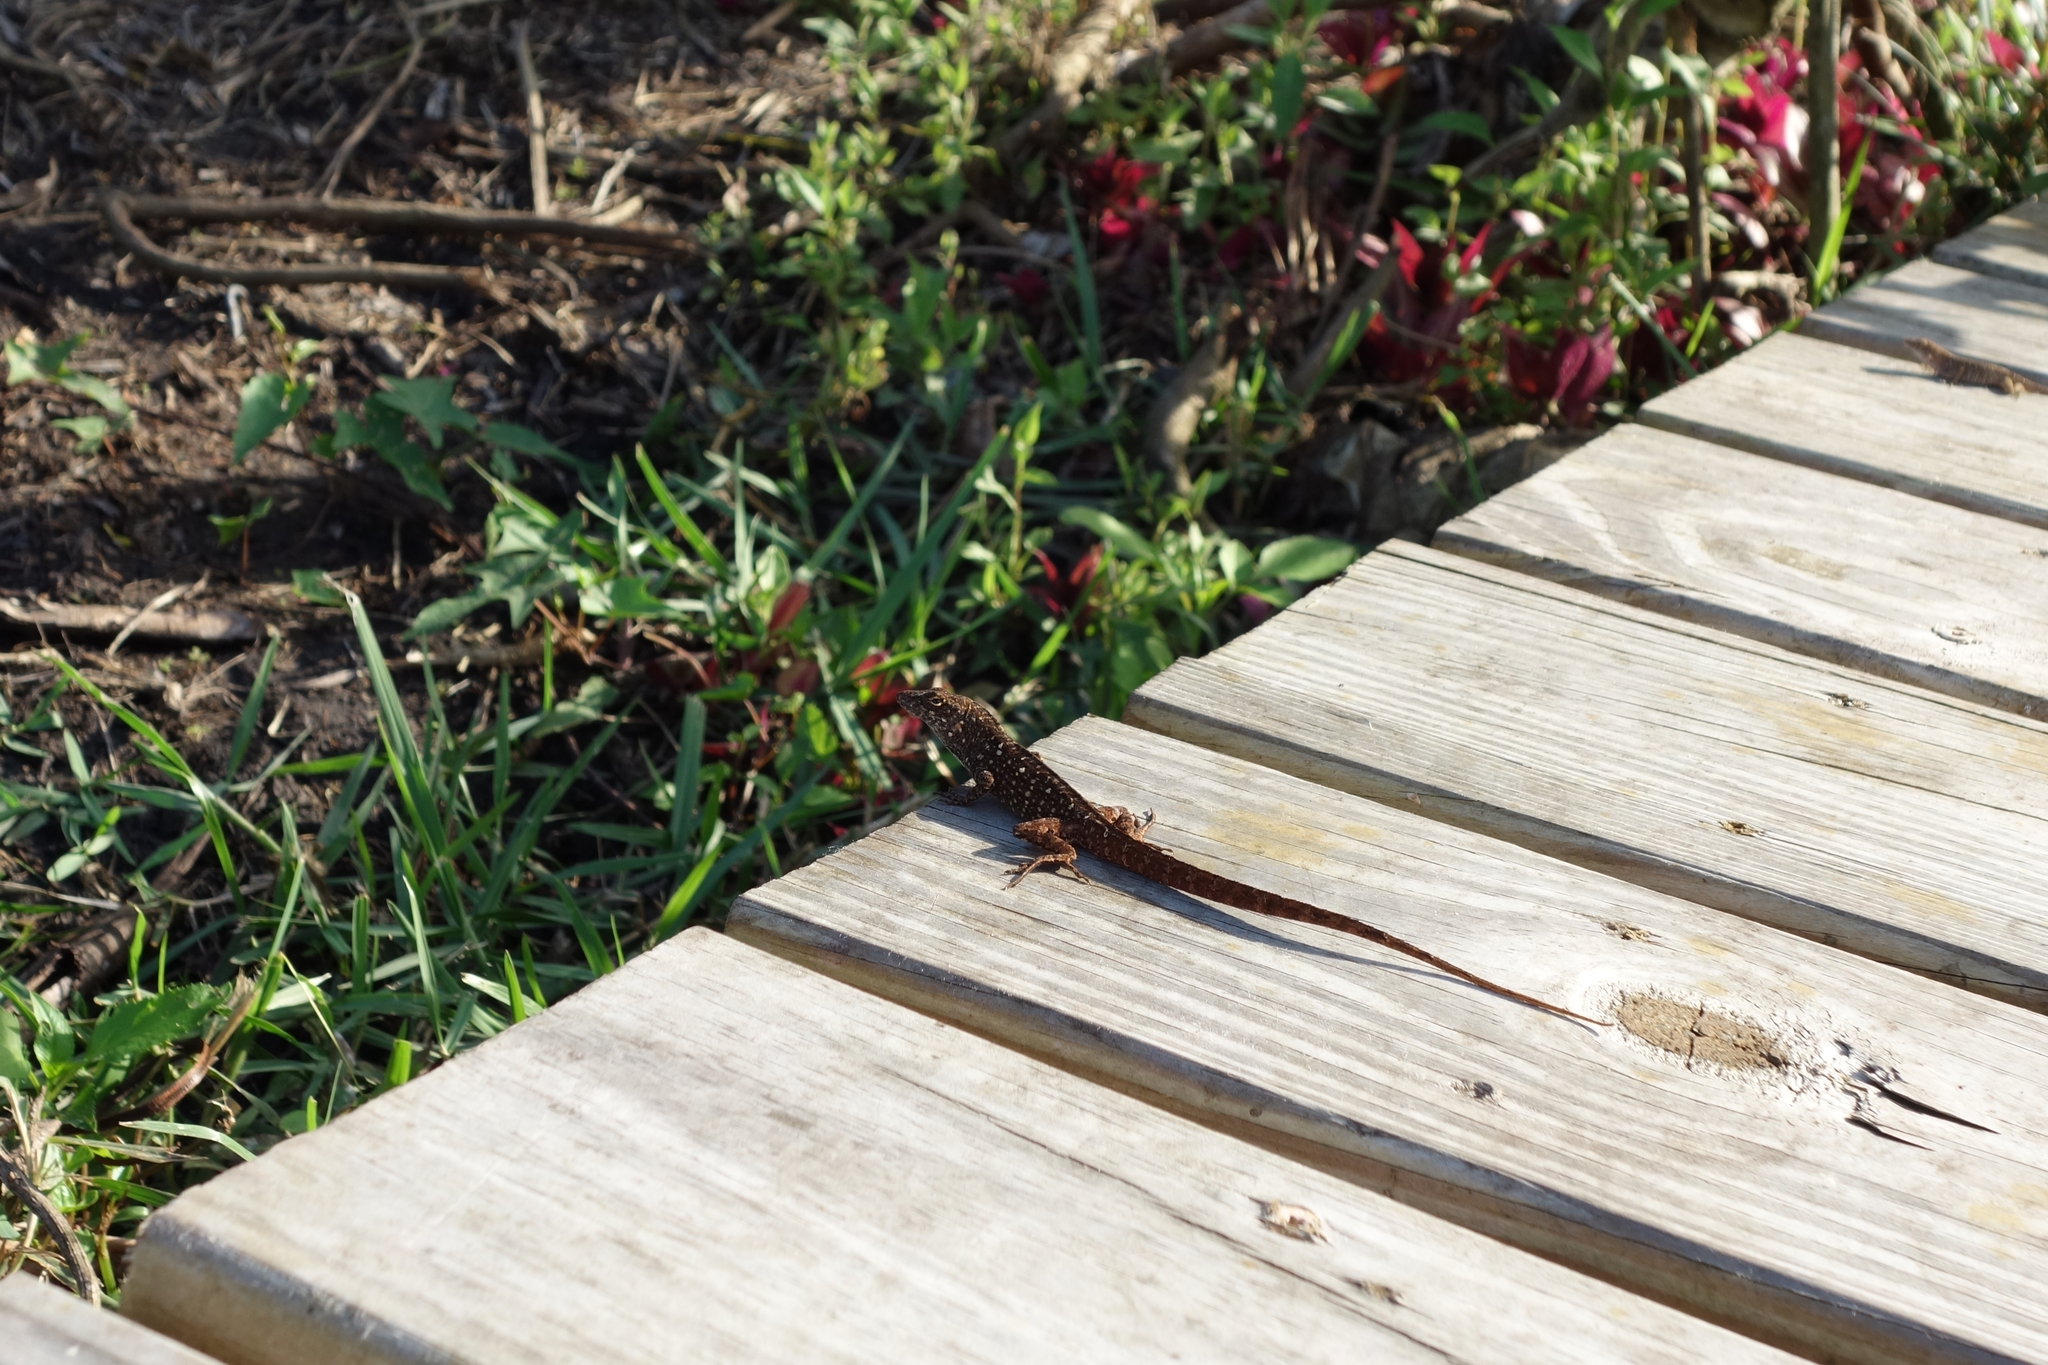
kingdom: Animalia
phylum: Chordata
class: Squamata
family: Dactyloidae
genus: Anolis
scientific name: Anolis sagrei
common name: Brown anole
